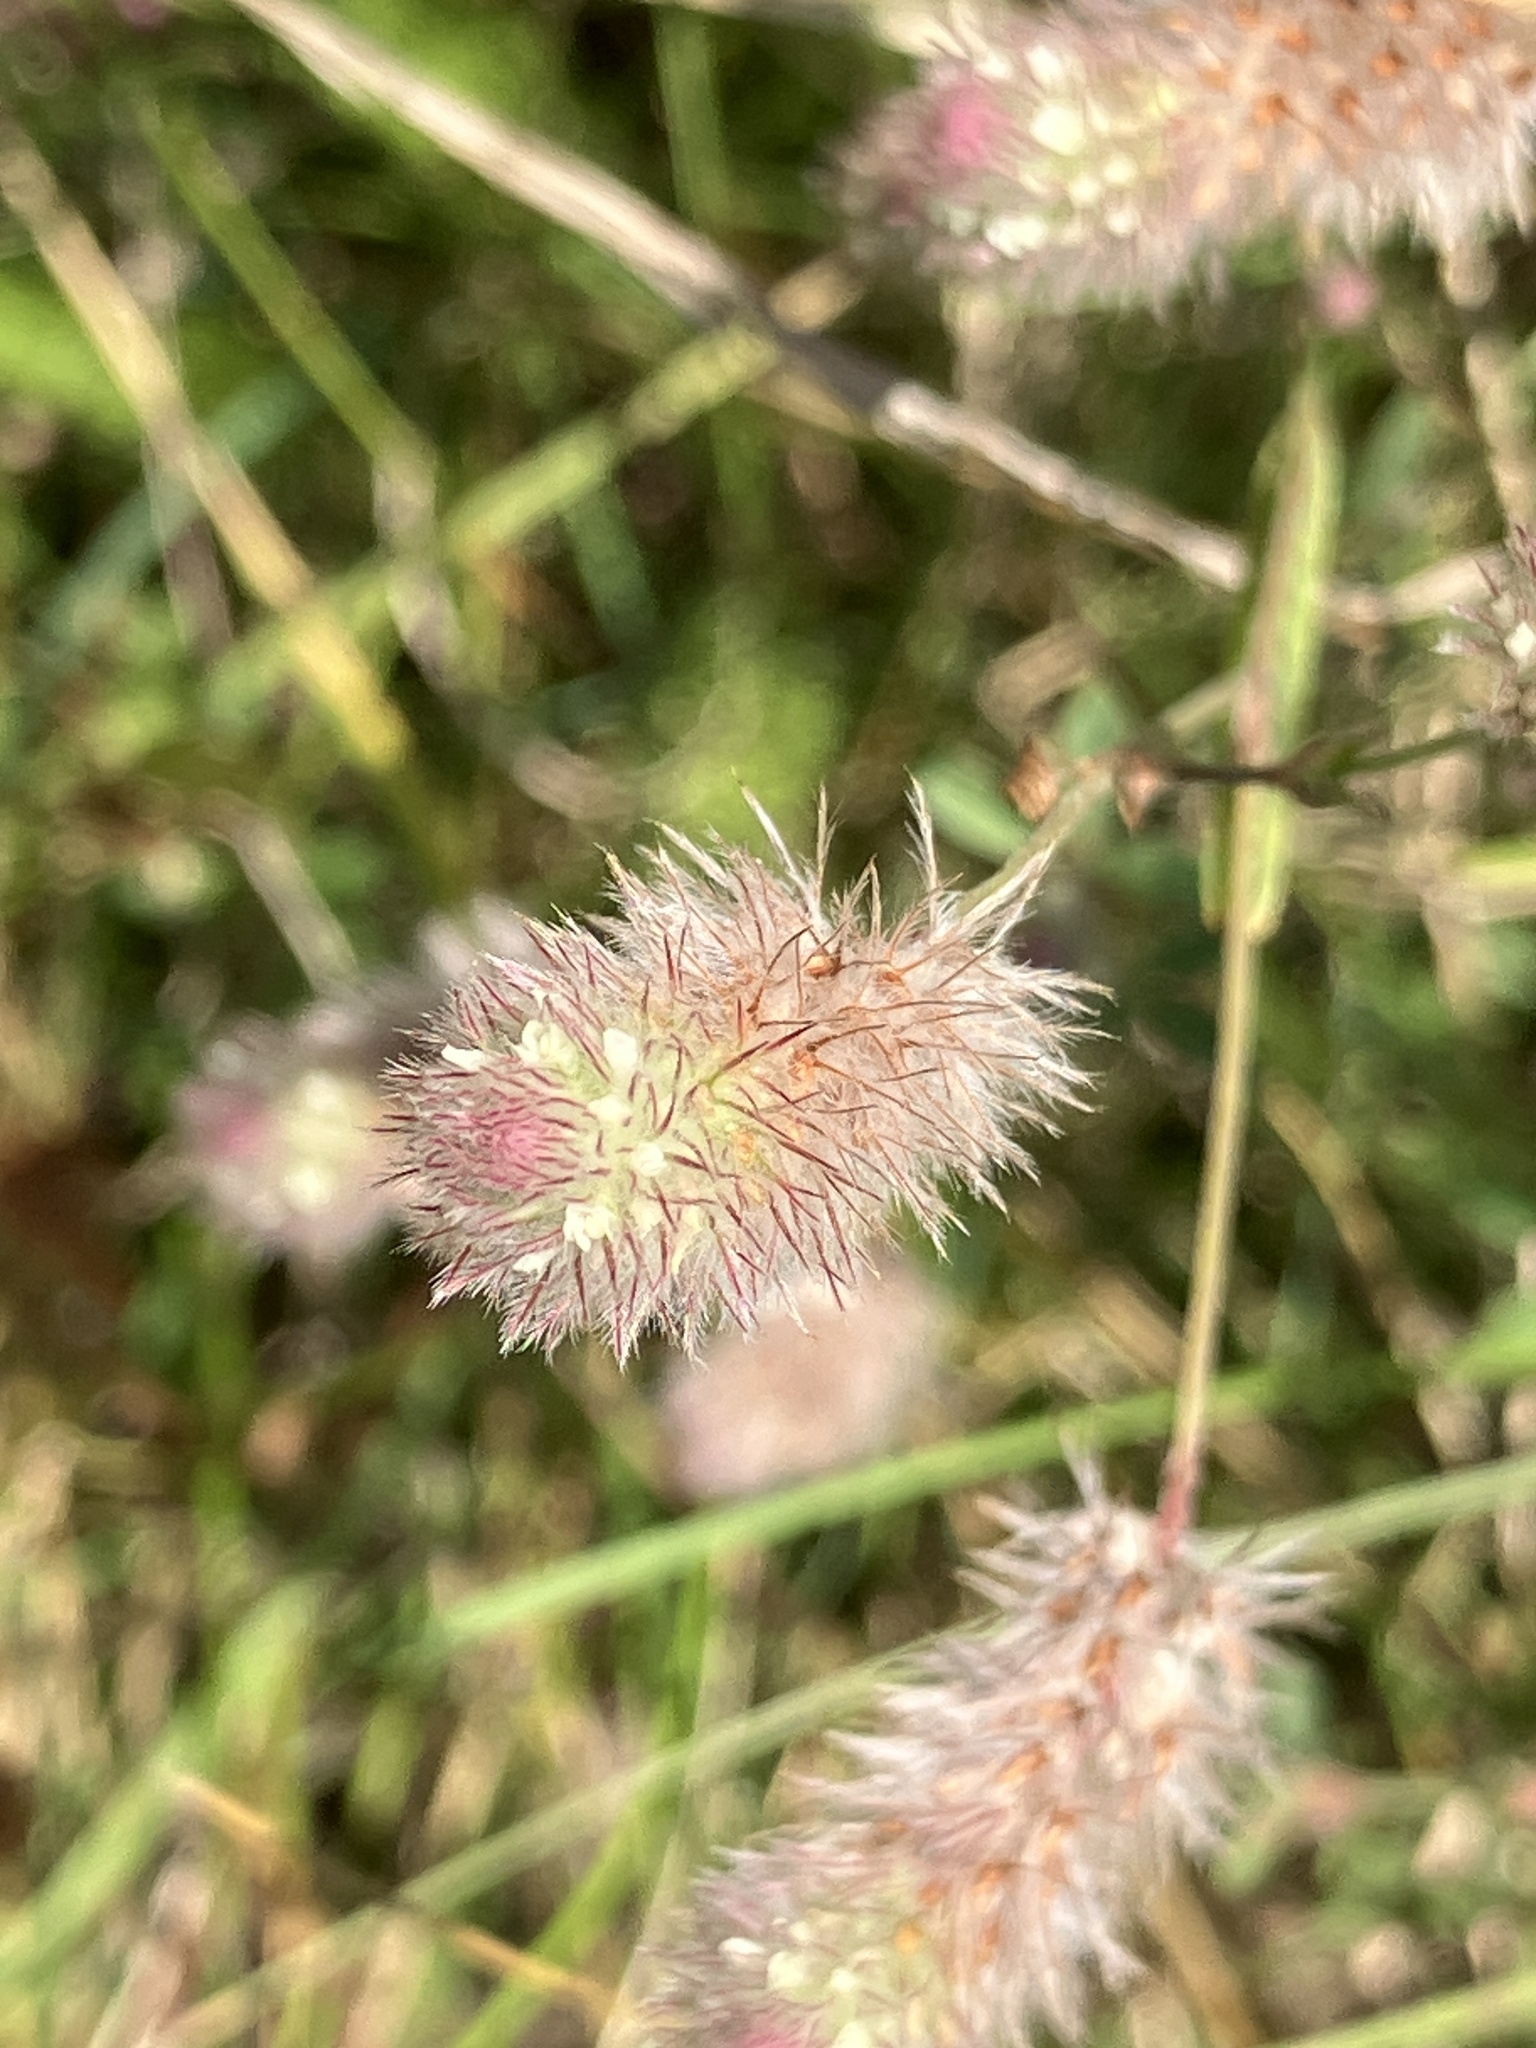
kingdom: Plantae
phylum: Tracheophyta
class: Magnoliopsida
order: Fabales
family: Fabaceae
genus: Trifolium
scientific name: Trifolium arvense
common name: Hare's-foot clover
